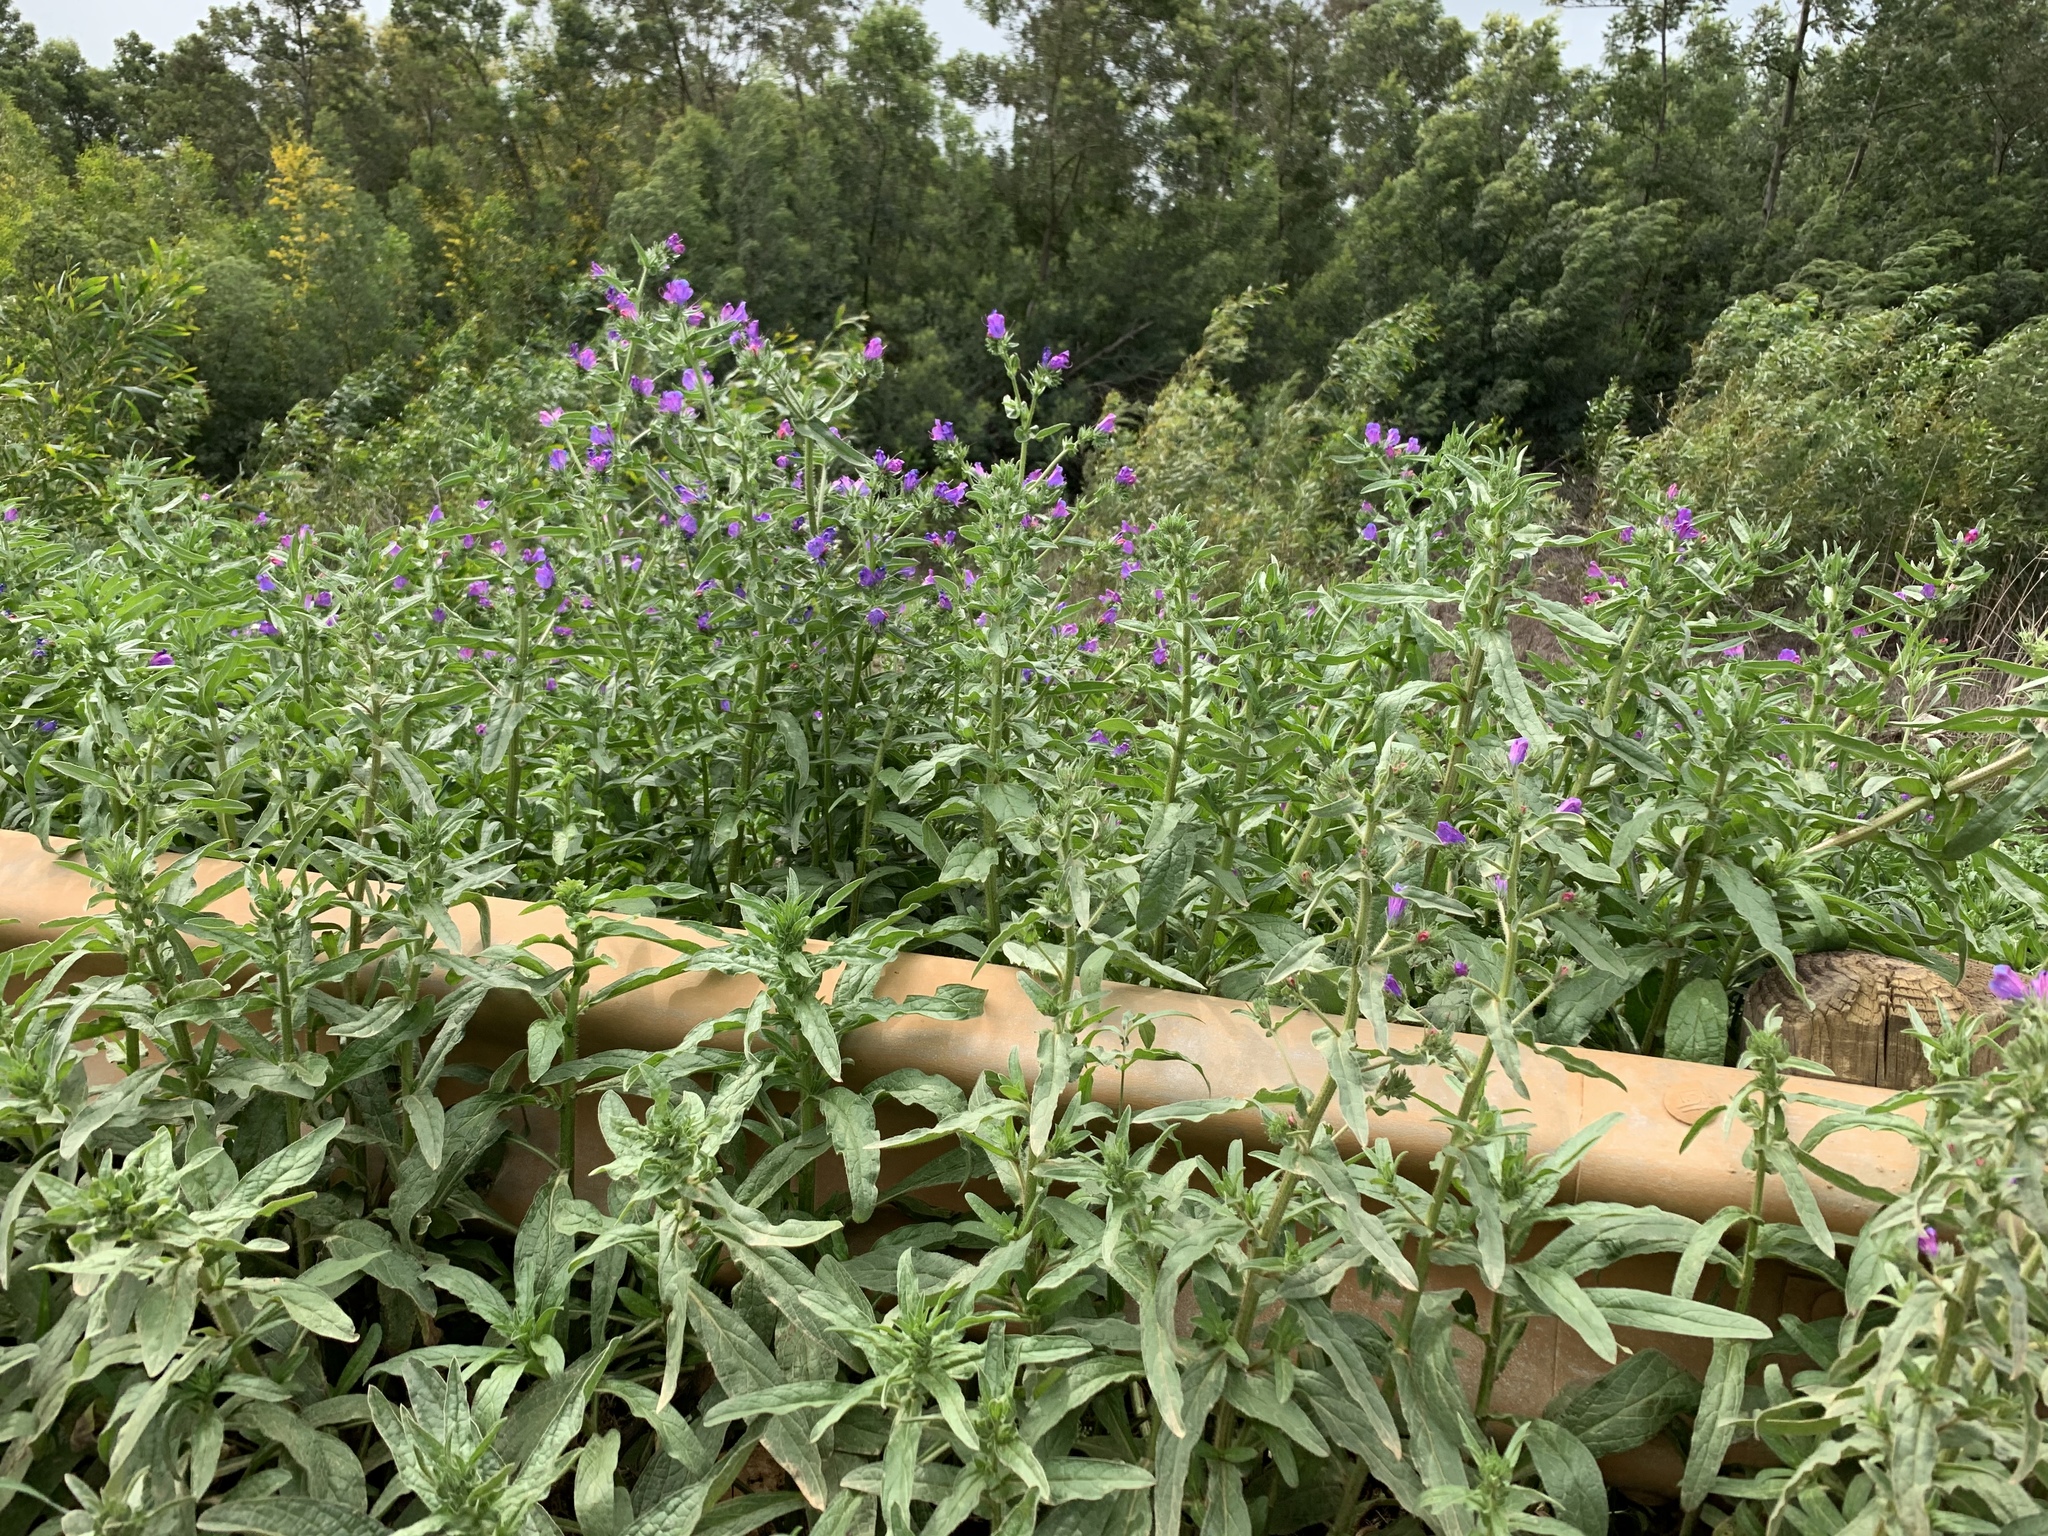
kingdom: Plantae
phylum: Tracheophyta
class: Magnoliopsida
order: Boraginales
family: Boraginaceae
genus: Echium
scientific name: Echium plantagineum
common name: Purple viper's-bugloss
